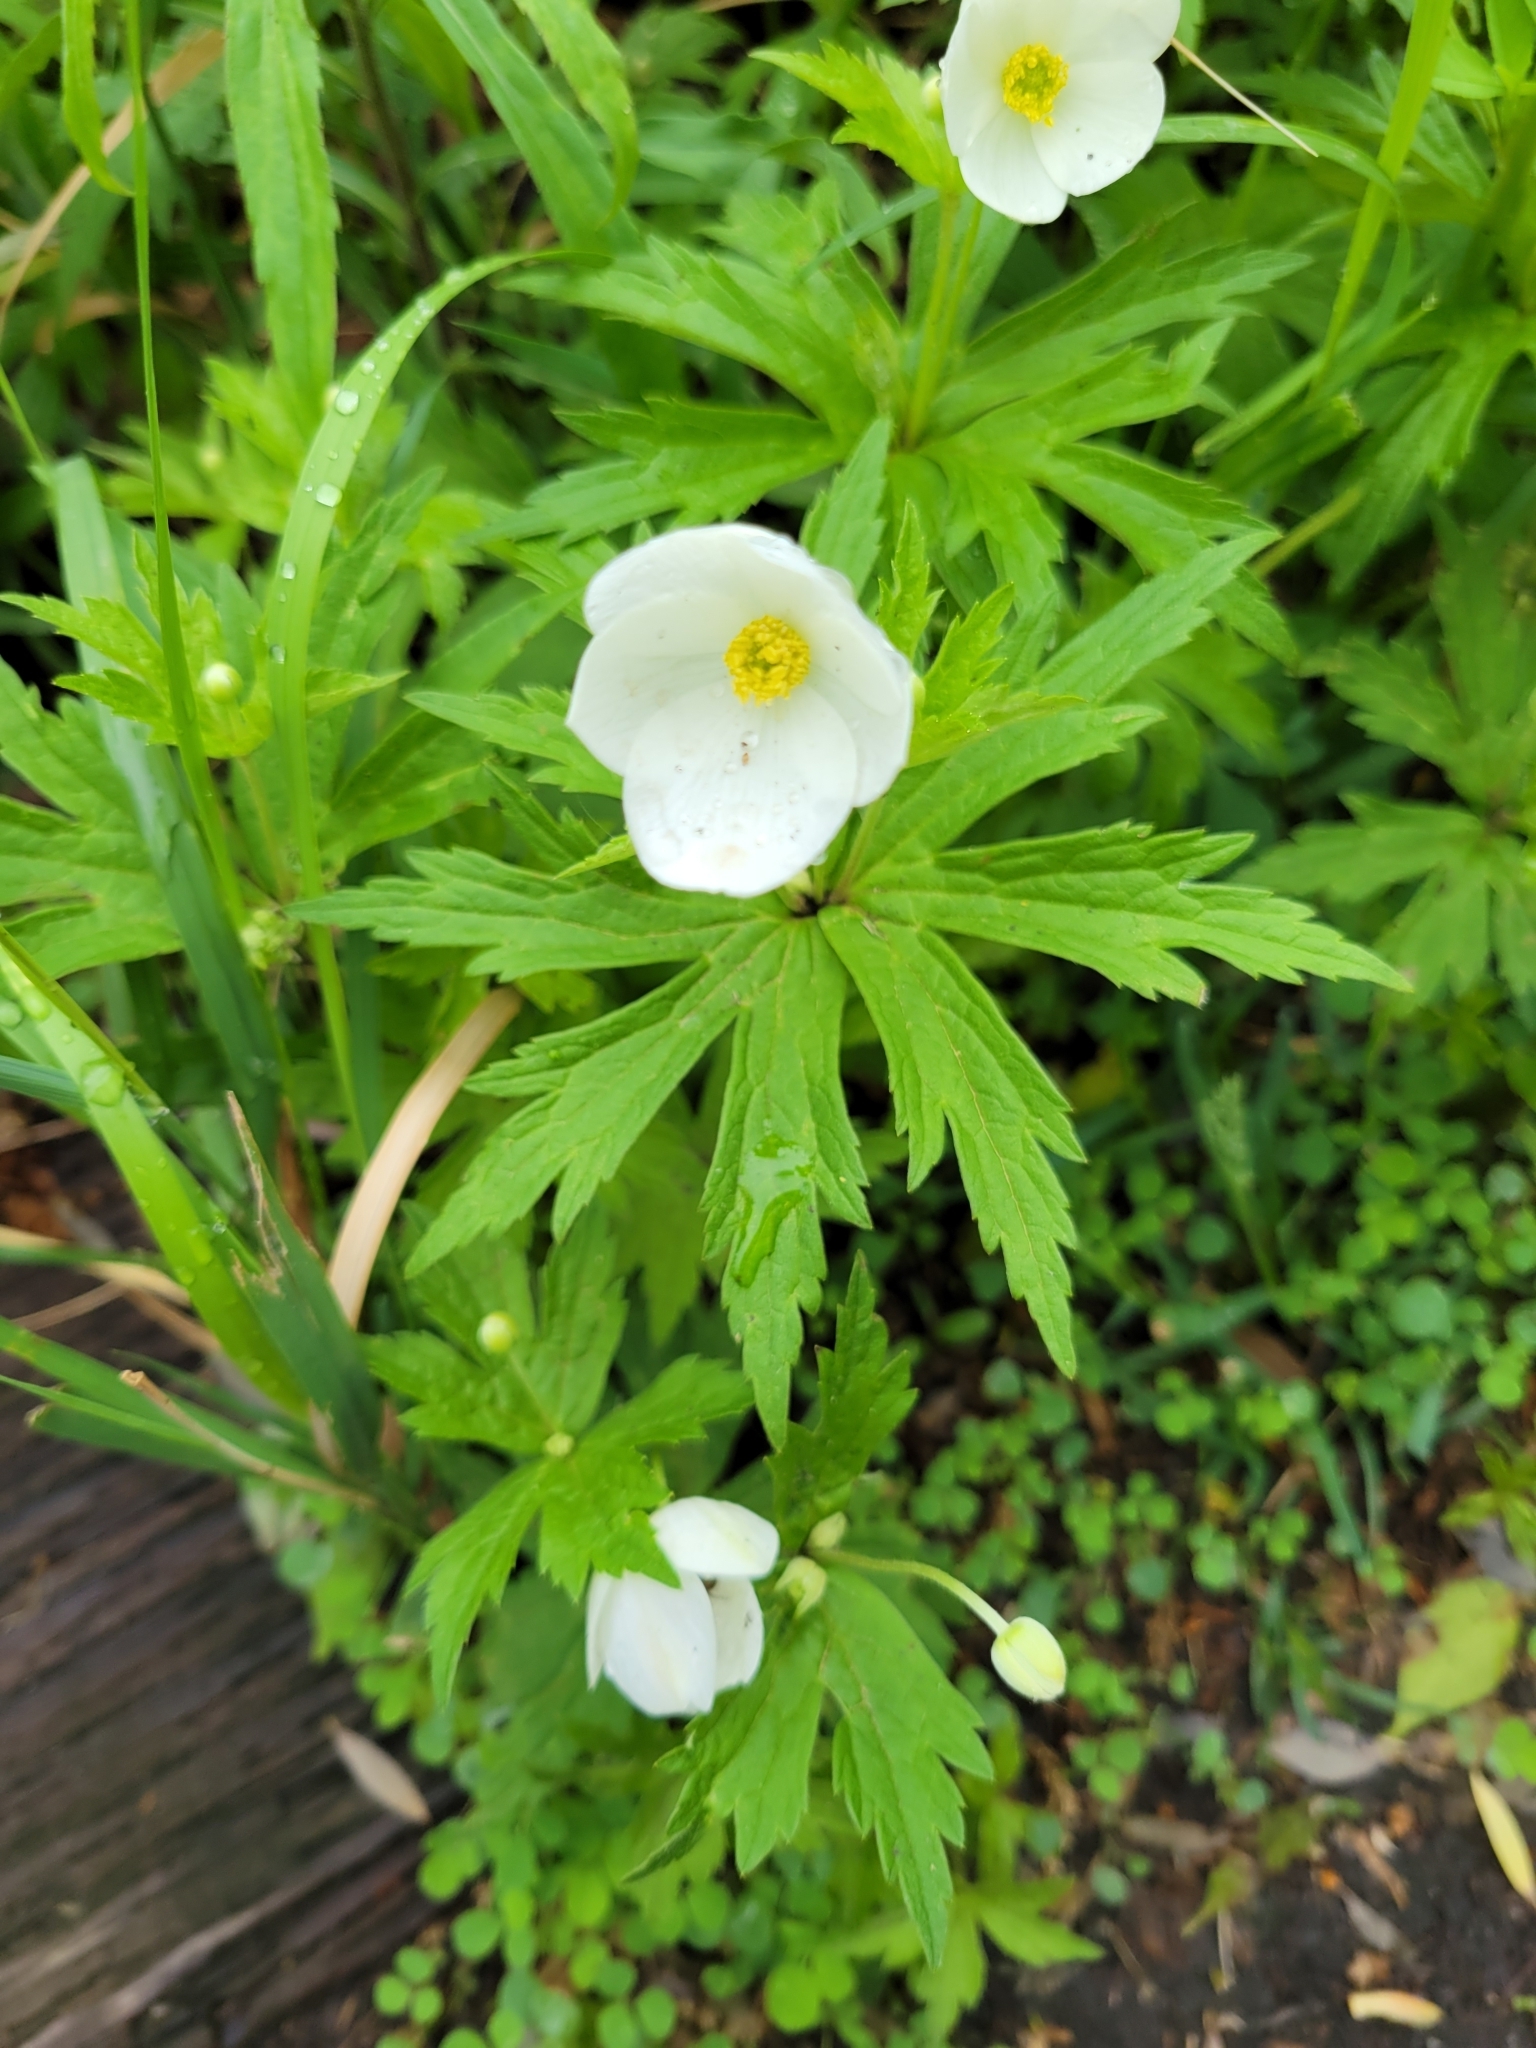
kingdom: Plantae
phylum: Tracheophyta
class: Magnoliopsida
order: Ranunculales
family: Ranunculaceae
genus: Anemonastrum
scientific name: Anemonastrum canadense
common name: Canada anemone
